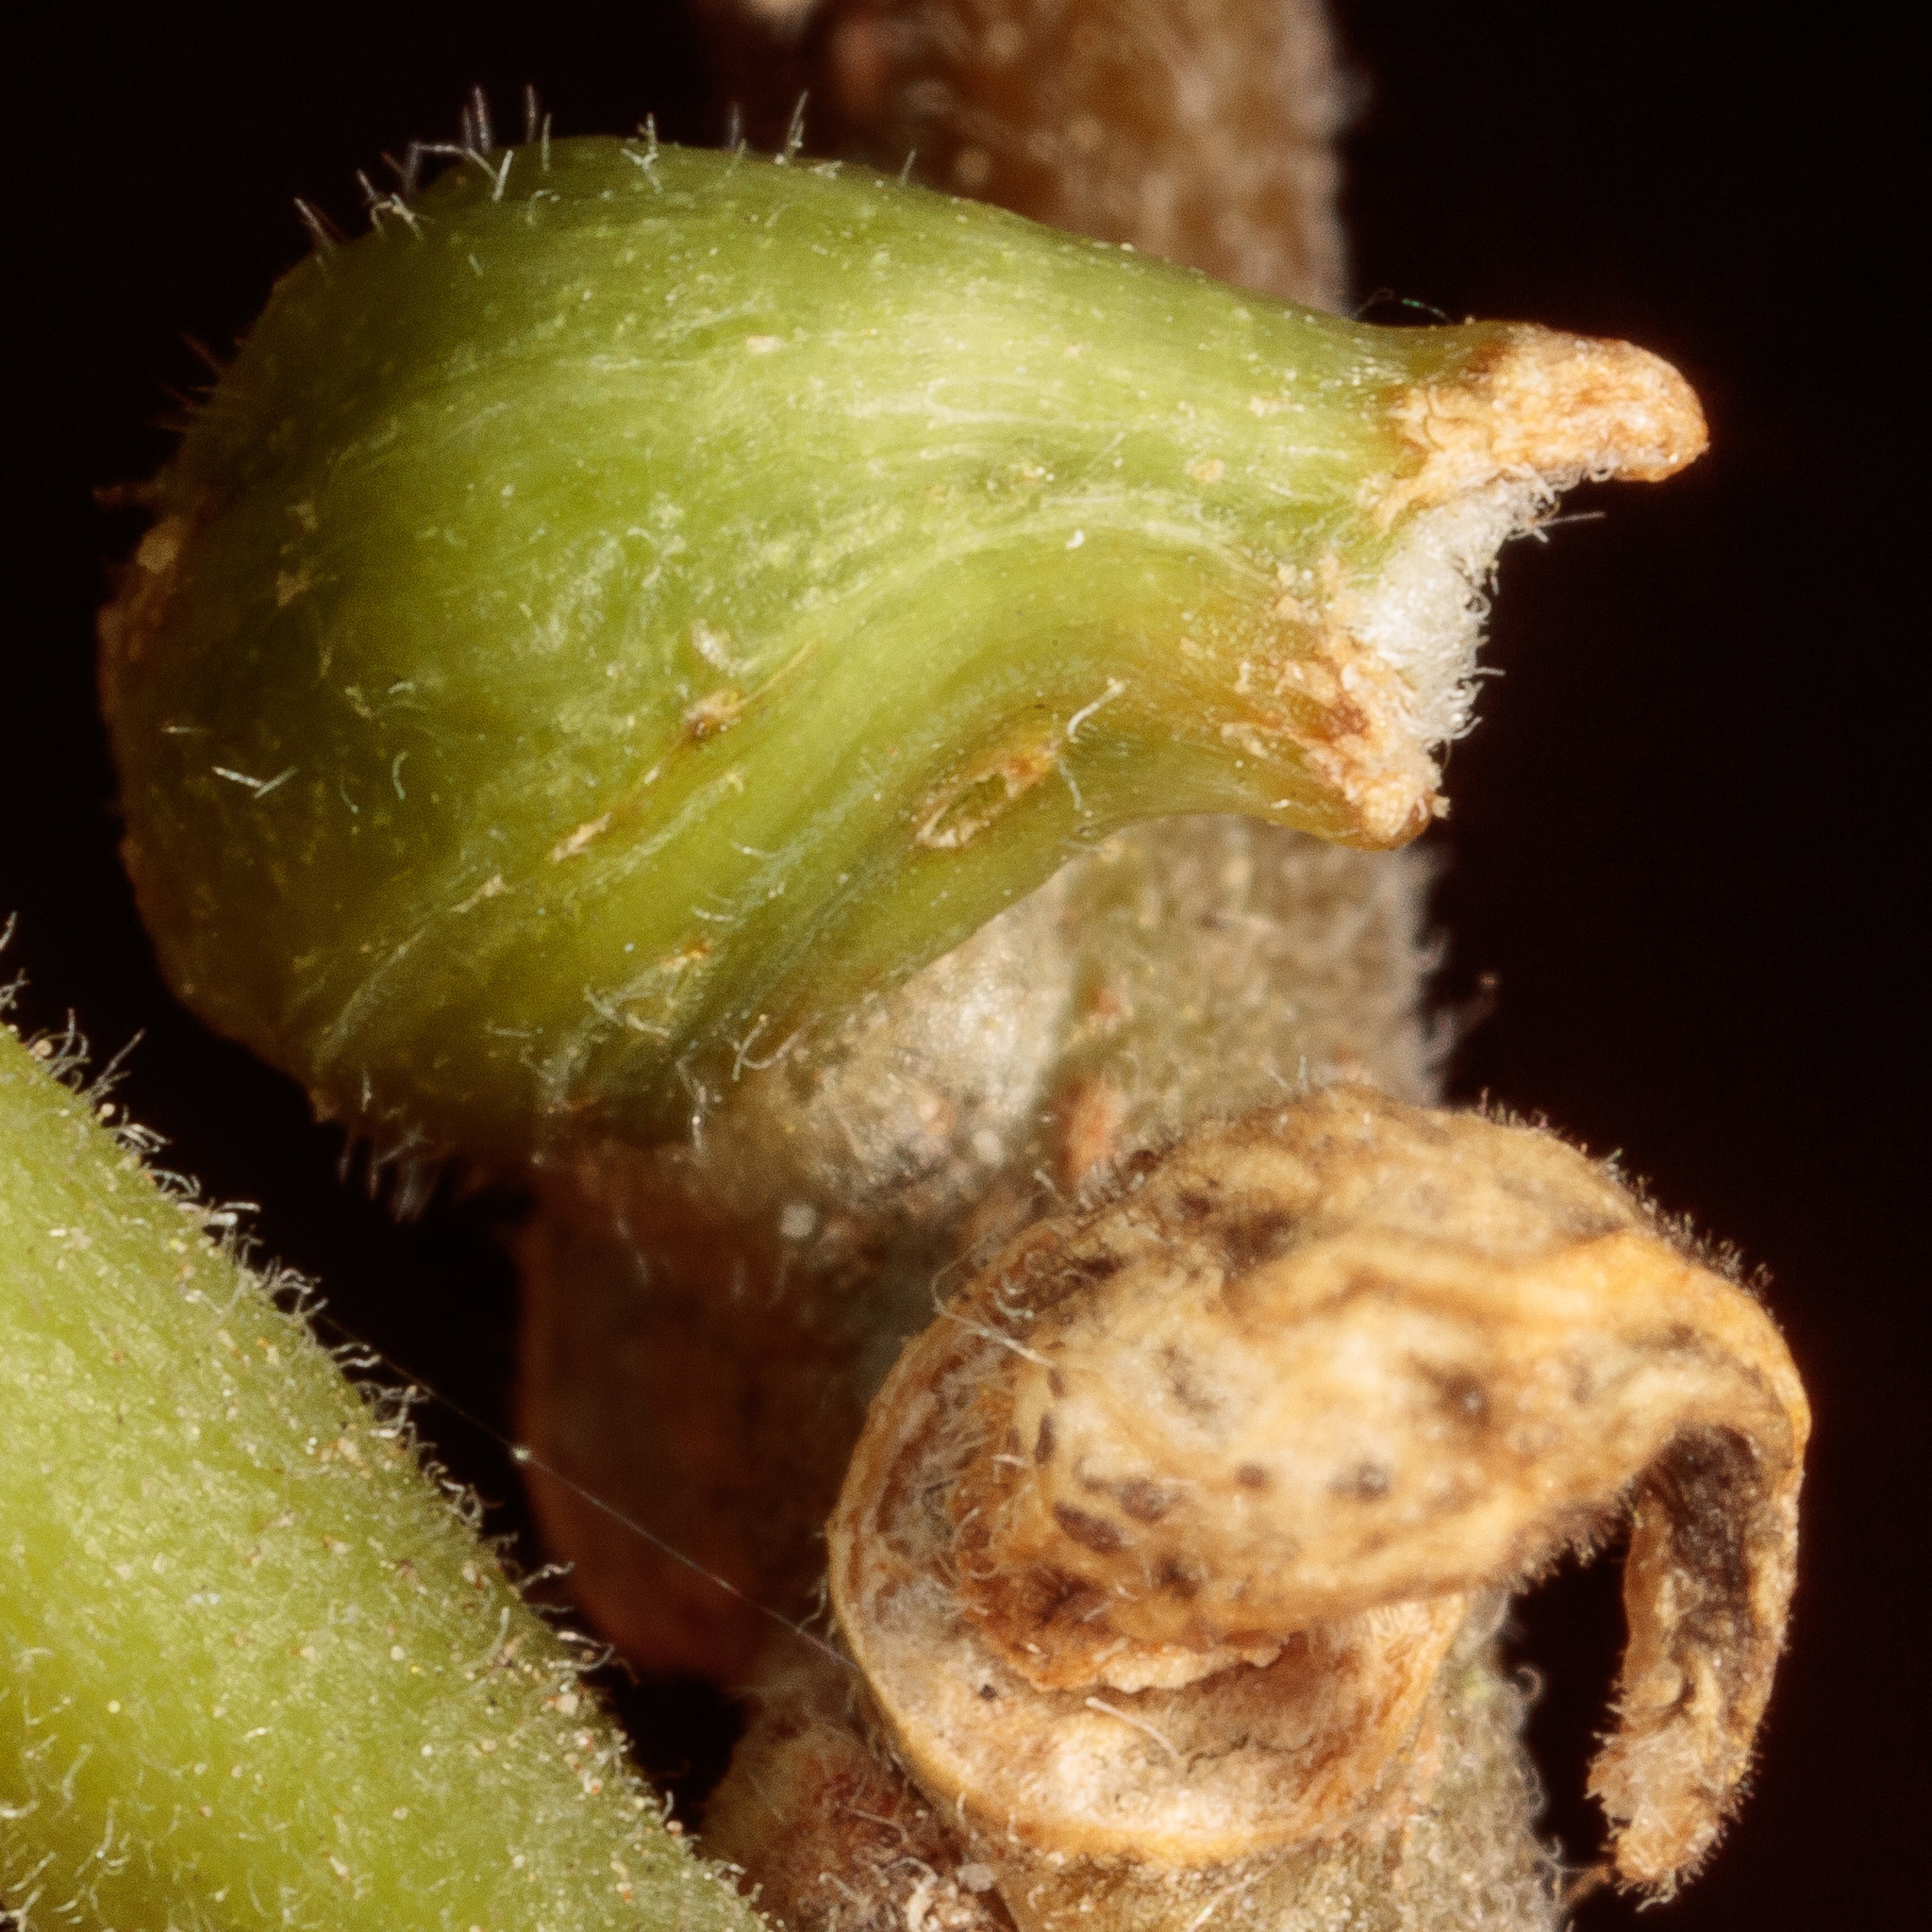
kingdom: Animalia
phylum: Arthropoda
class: Insecta
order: Diptera
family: Cecidomyiidae
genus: Celticecis
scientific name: Celticecis ramicola
